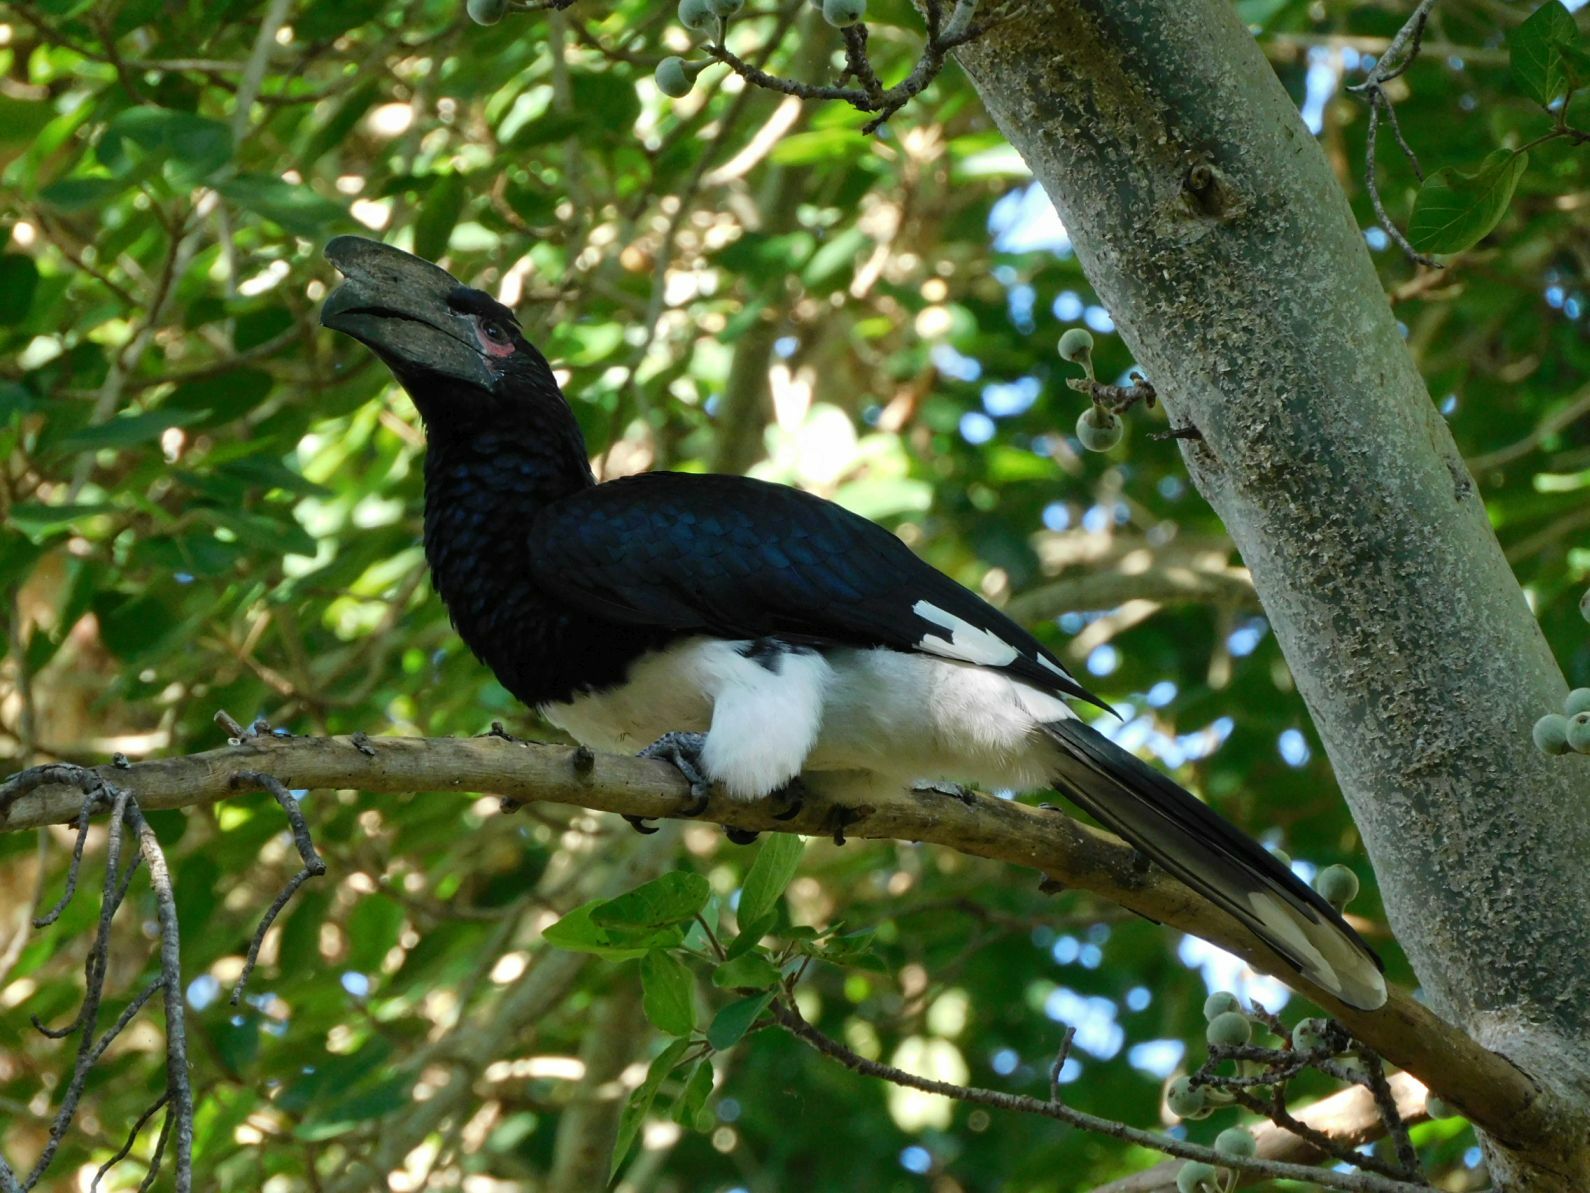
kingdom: Animalia
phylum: Chordata
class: Aves
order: Bucerotiformes
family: Bucerotidae
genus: Bycanistes
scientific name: Bycanistes bucinator
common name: Trumpeter hornbill
